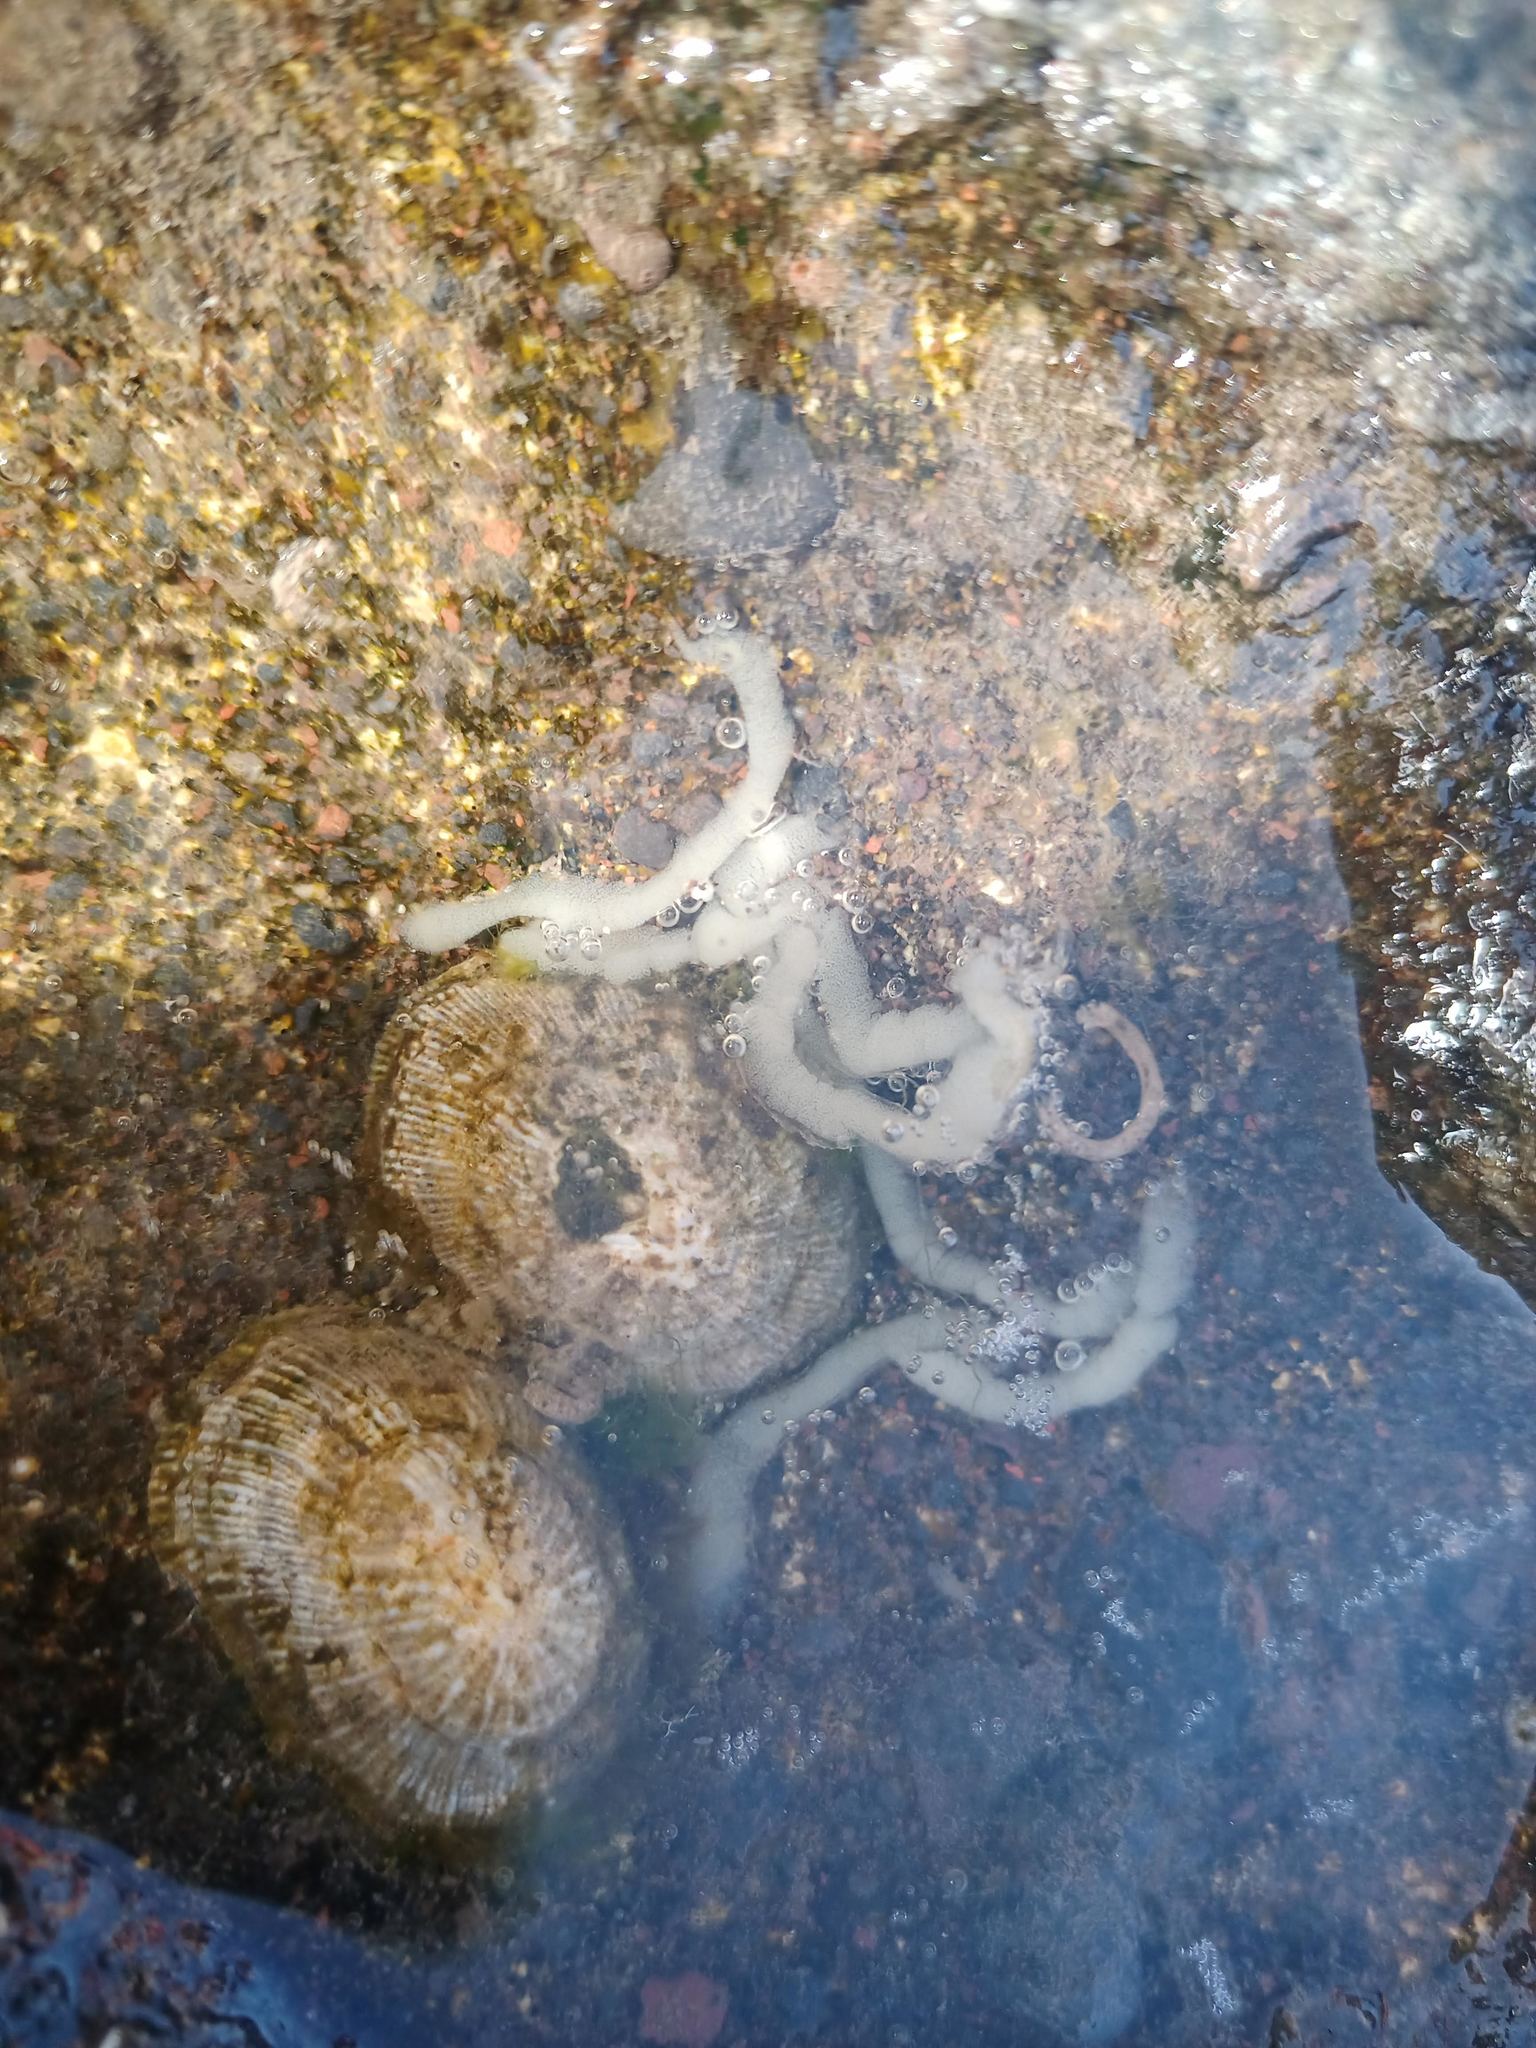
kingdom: Animalia
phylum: Mollusca
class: Gastropoda
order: Siphonariida
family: Siphonariidae
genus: Siphonaria
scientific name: Siphonaria pectinata
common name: Striped false limpet
